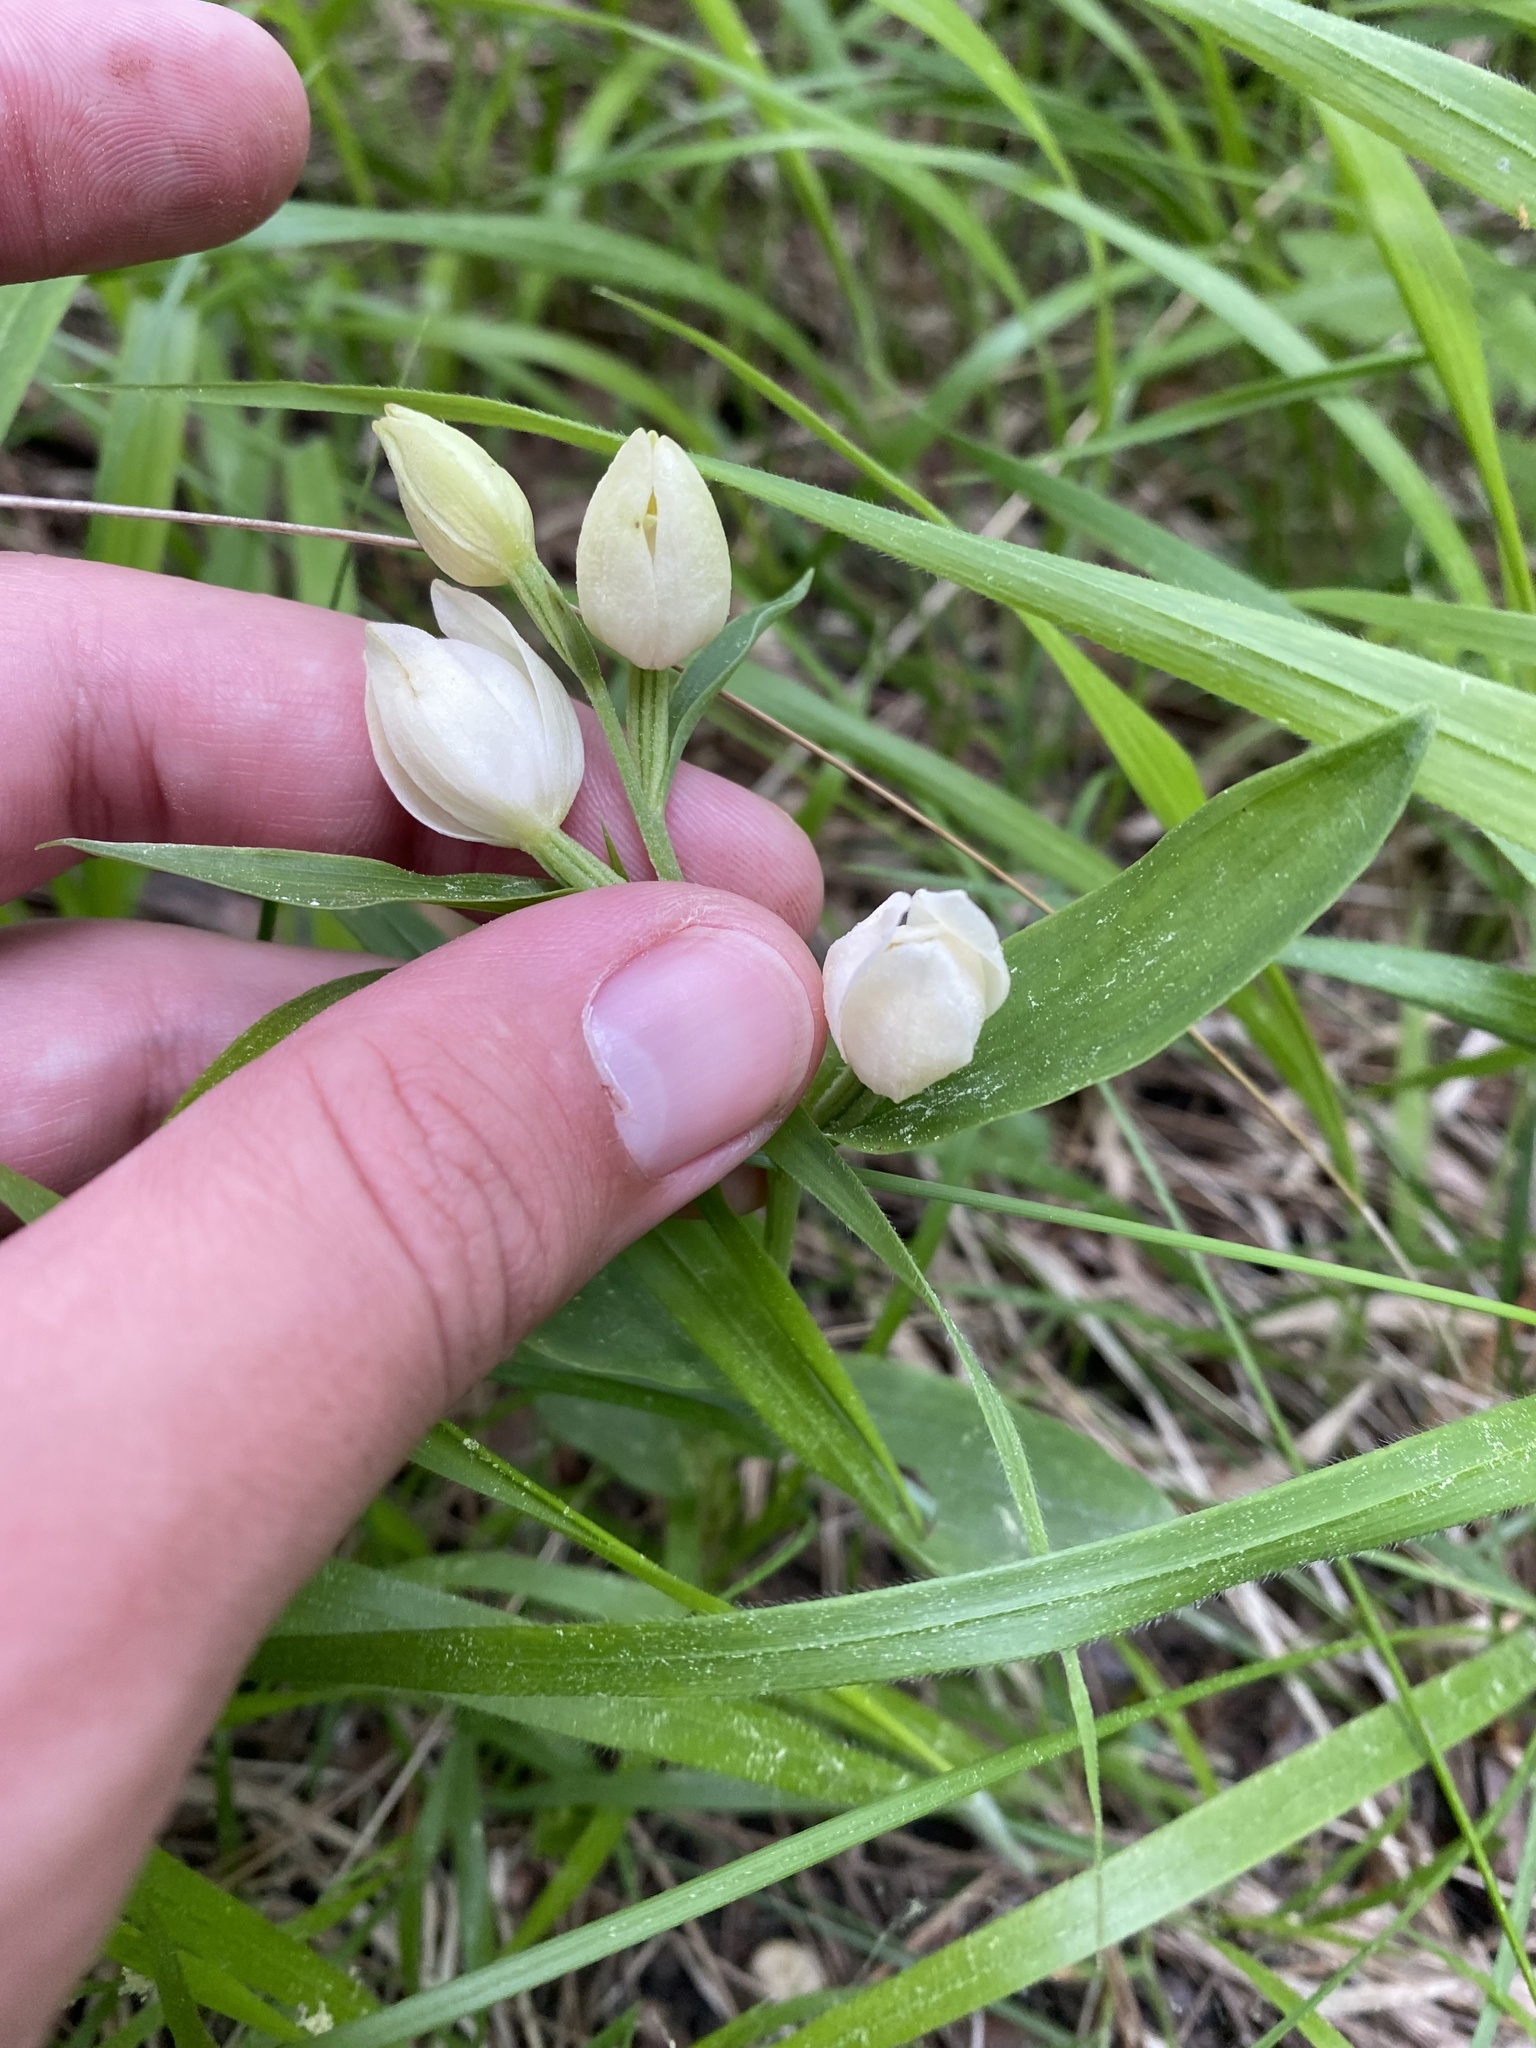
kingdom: Plantae
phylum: Tracheophyta
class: Liliopsida
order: Asparagales
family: Orchidaceae
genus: Cephalanthera
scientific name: Cephalanthera longifolia
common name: Narrow-leaved helleborine
